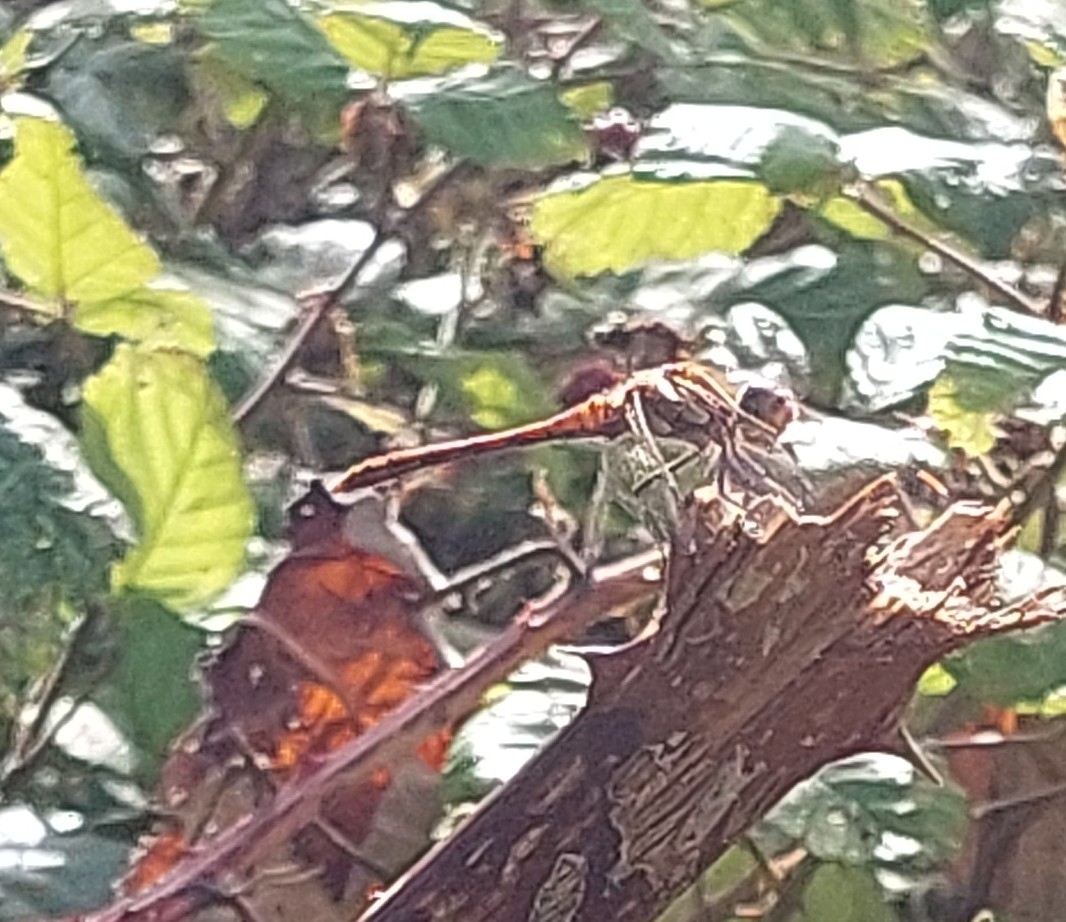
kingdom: Animalia
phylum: Arthropoda
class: Insecta
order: Odonata
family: Libellulidae
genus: Sympetrum
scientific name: Sympetrum striolatum
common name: Common darter
